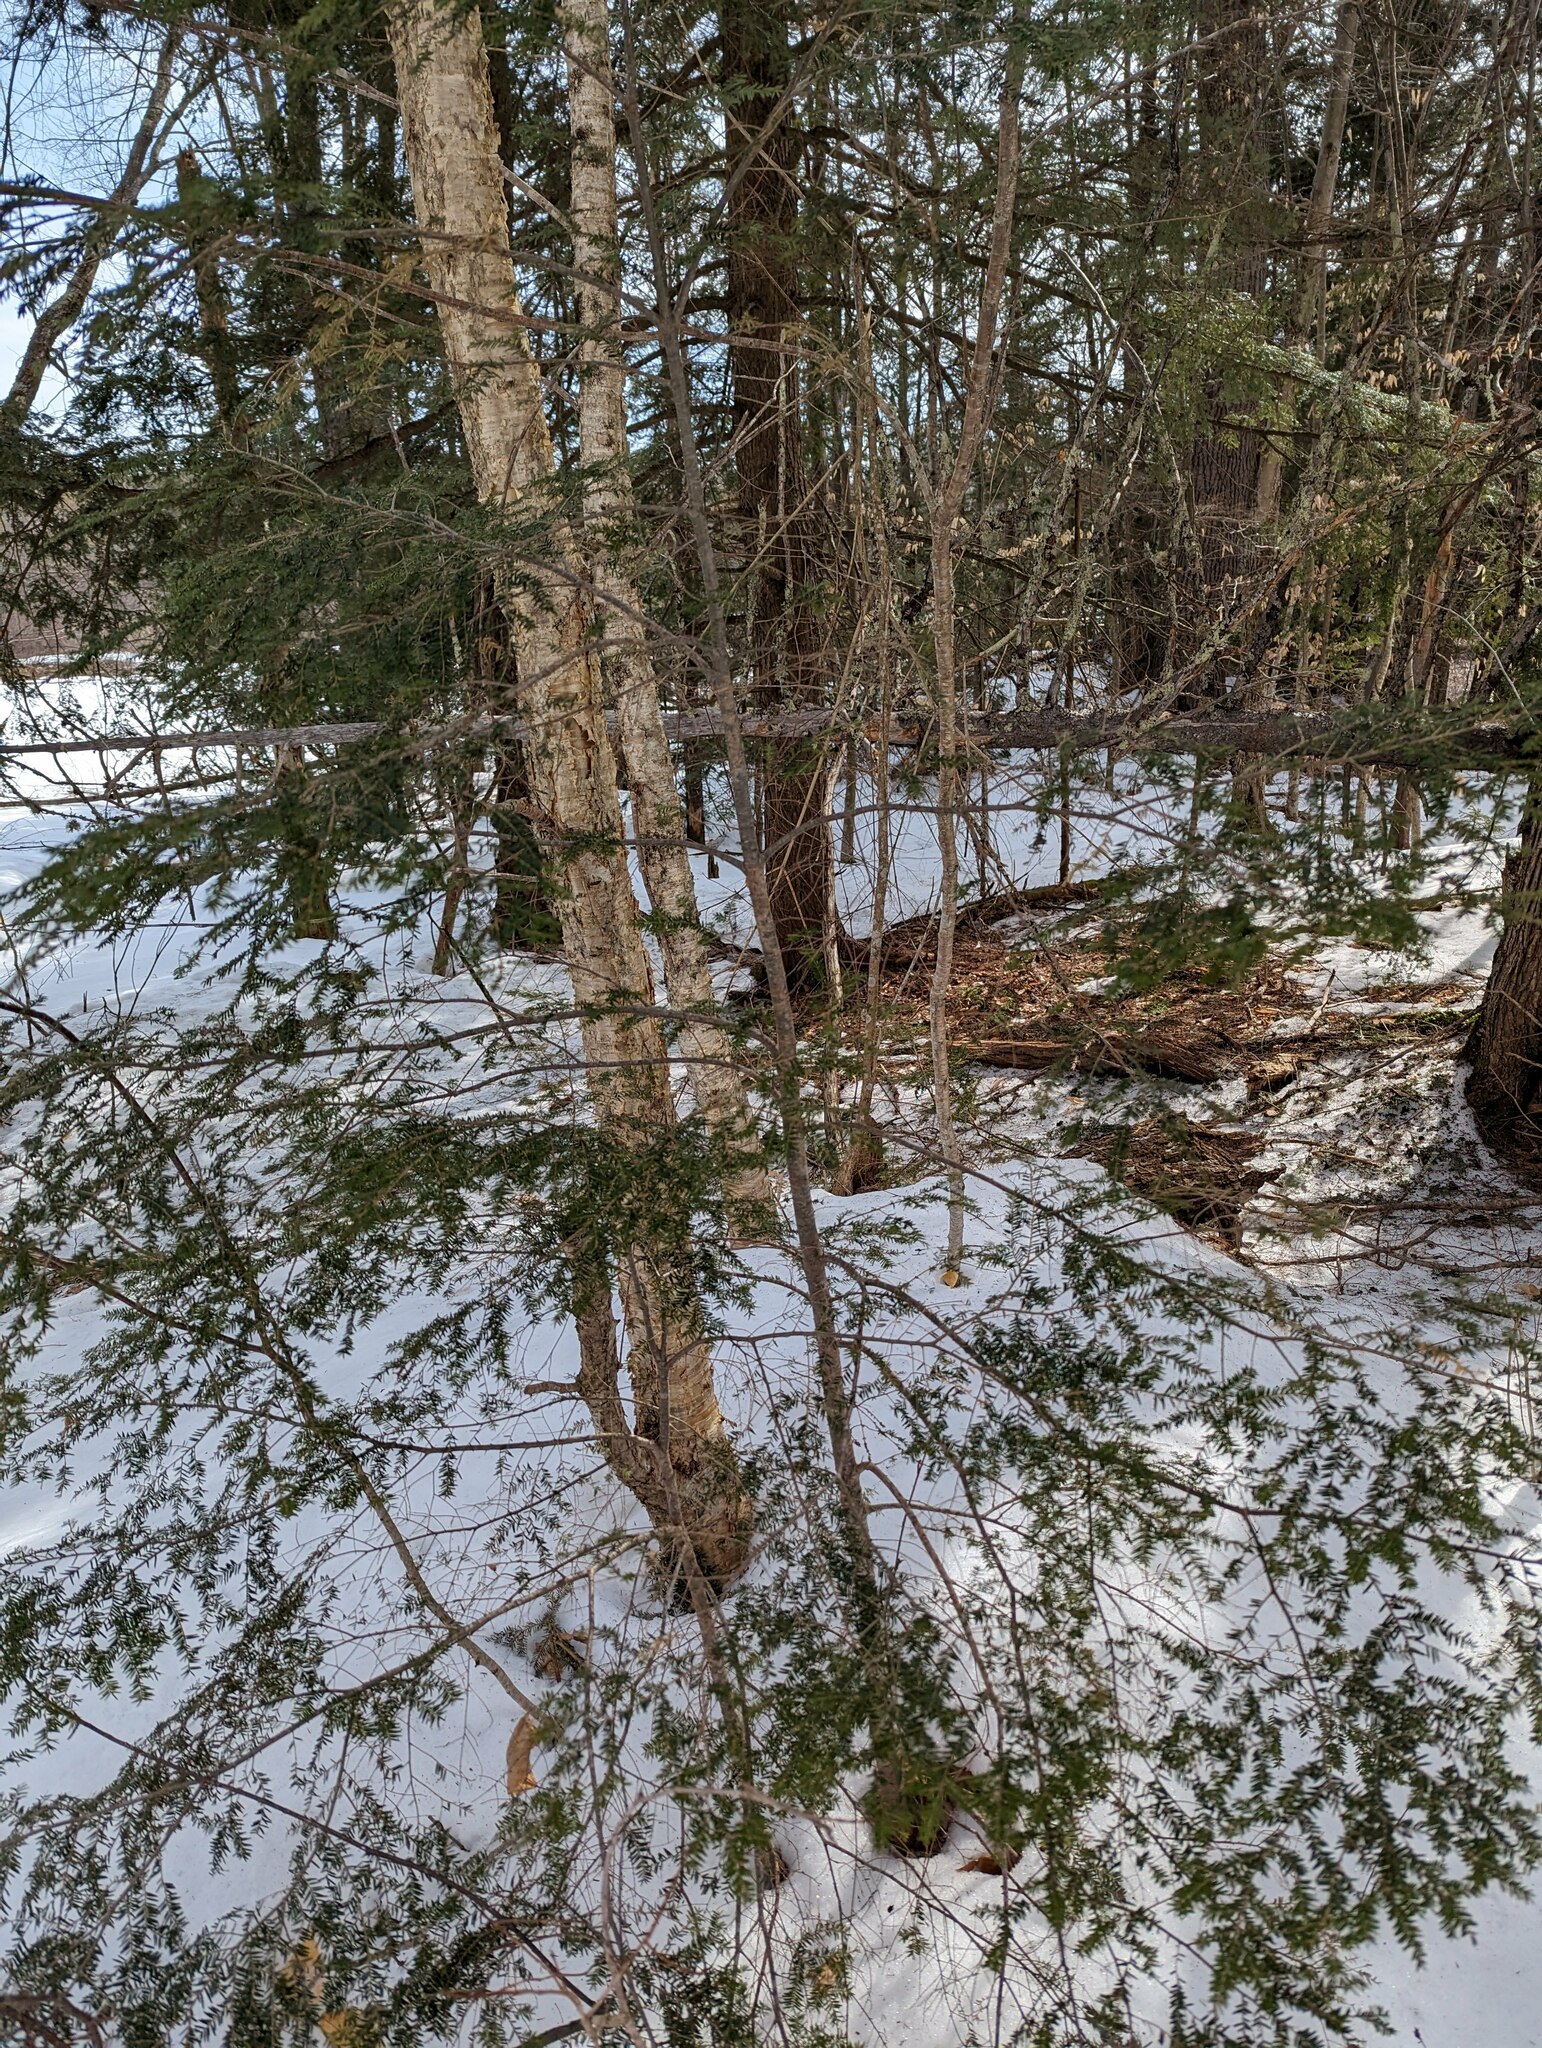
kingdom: Plantae
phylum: Tracheophyta
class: Pinopsida
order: Pinales
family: Pinaceae
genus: Tsuga
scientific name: Tsuga canadensis
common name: Eastern hemlock
